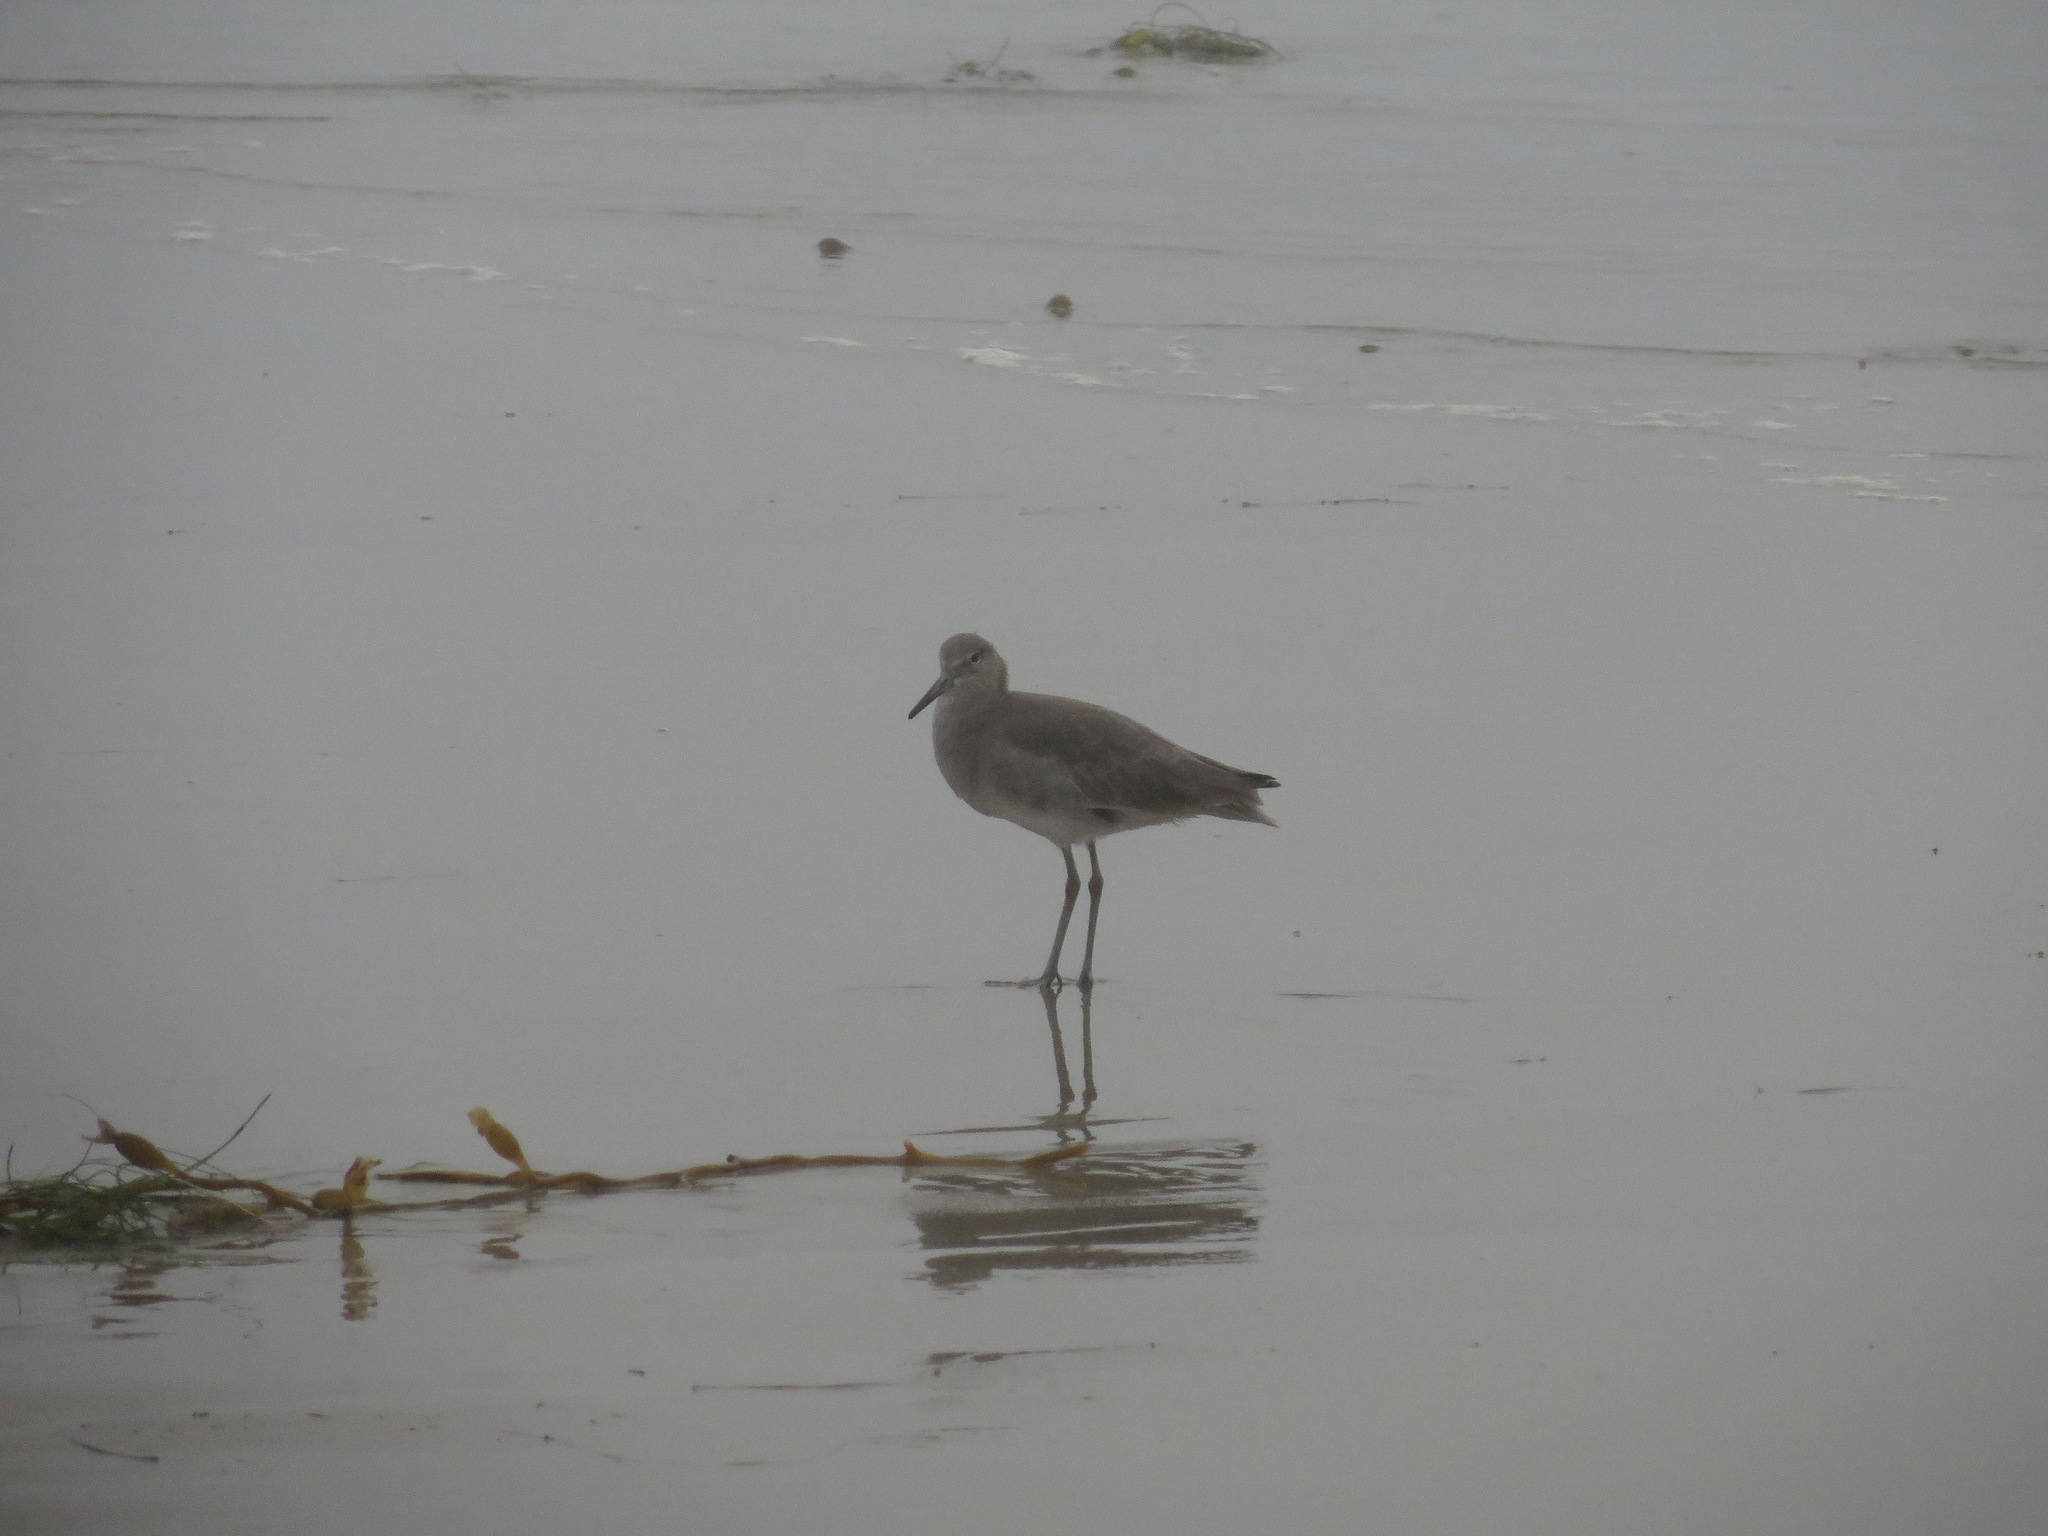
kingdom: Animalia
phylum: Chordata
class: Aves
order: Charadriiformes
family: Scolopacidae
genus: Tringa
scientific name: Tringa semipalmata
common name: Willet
